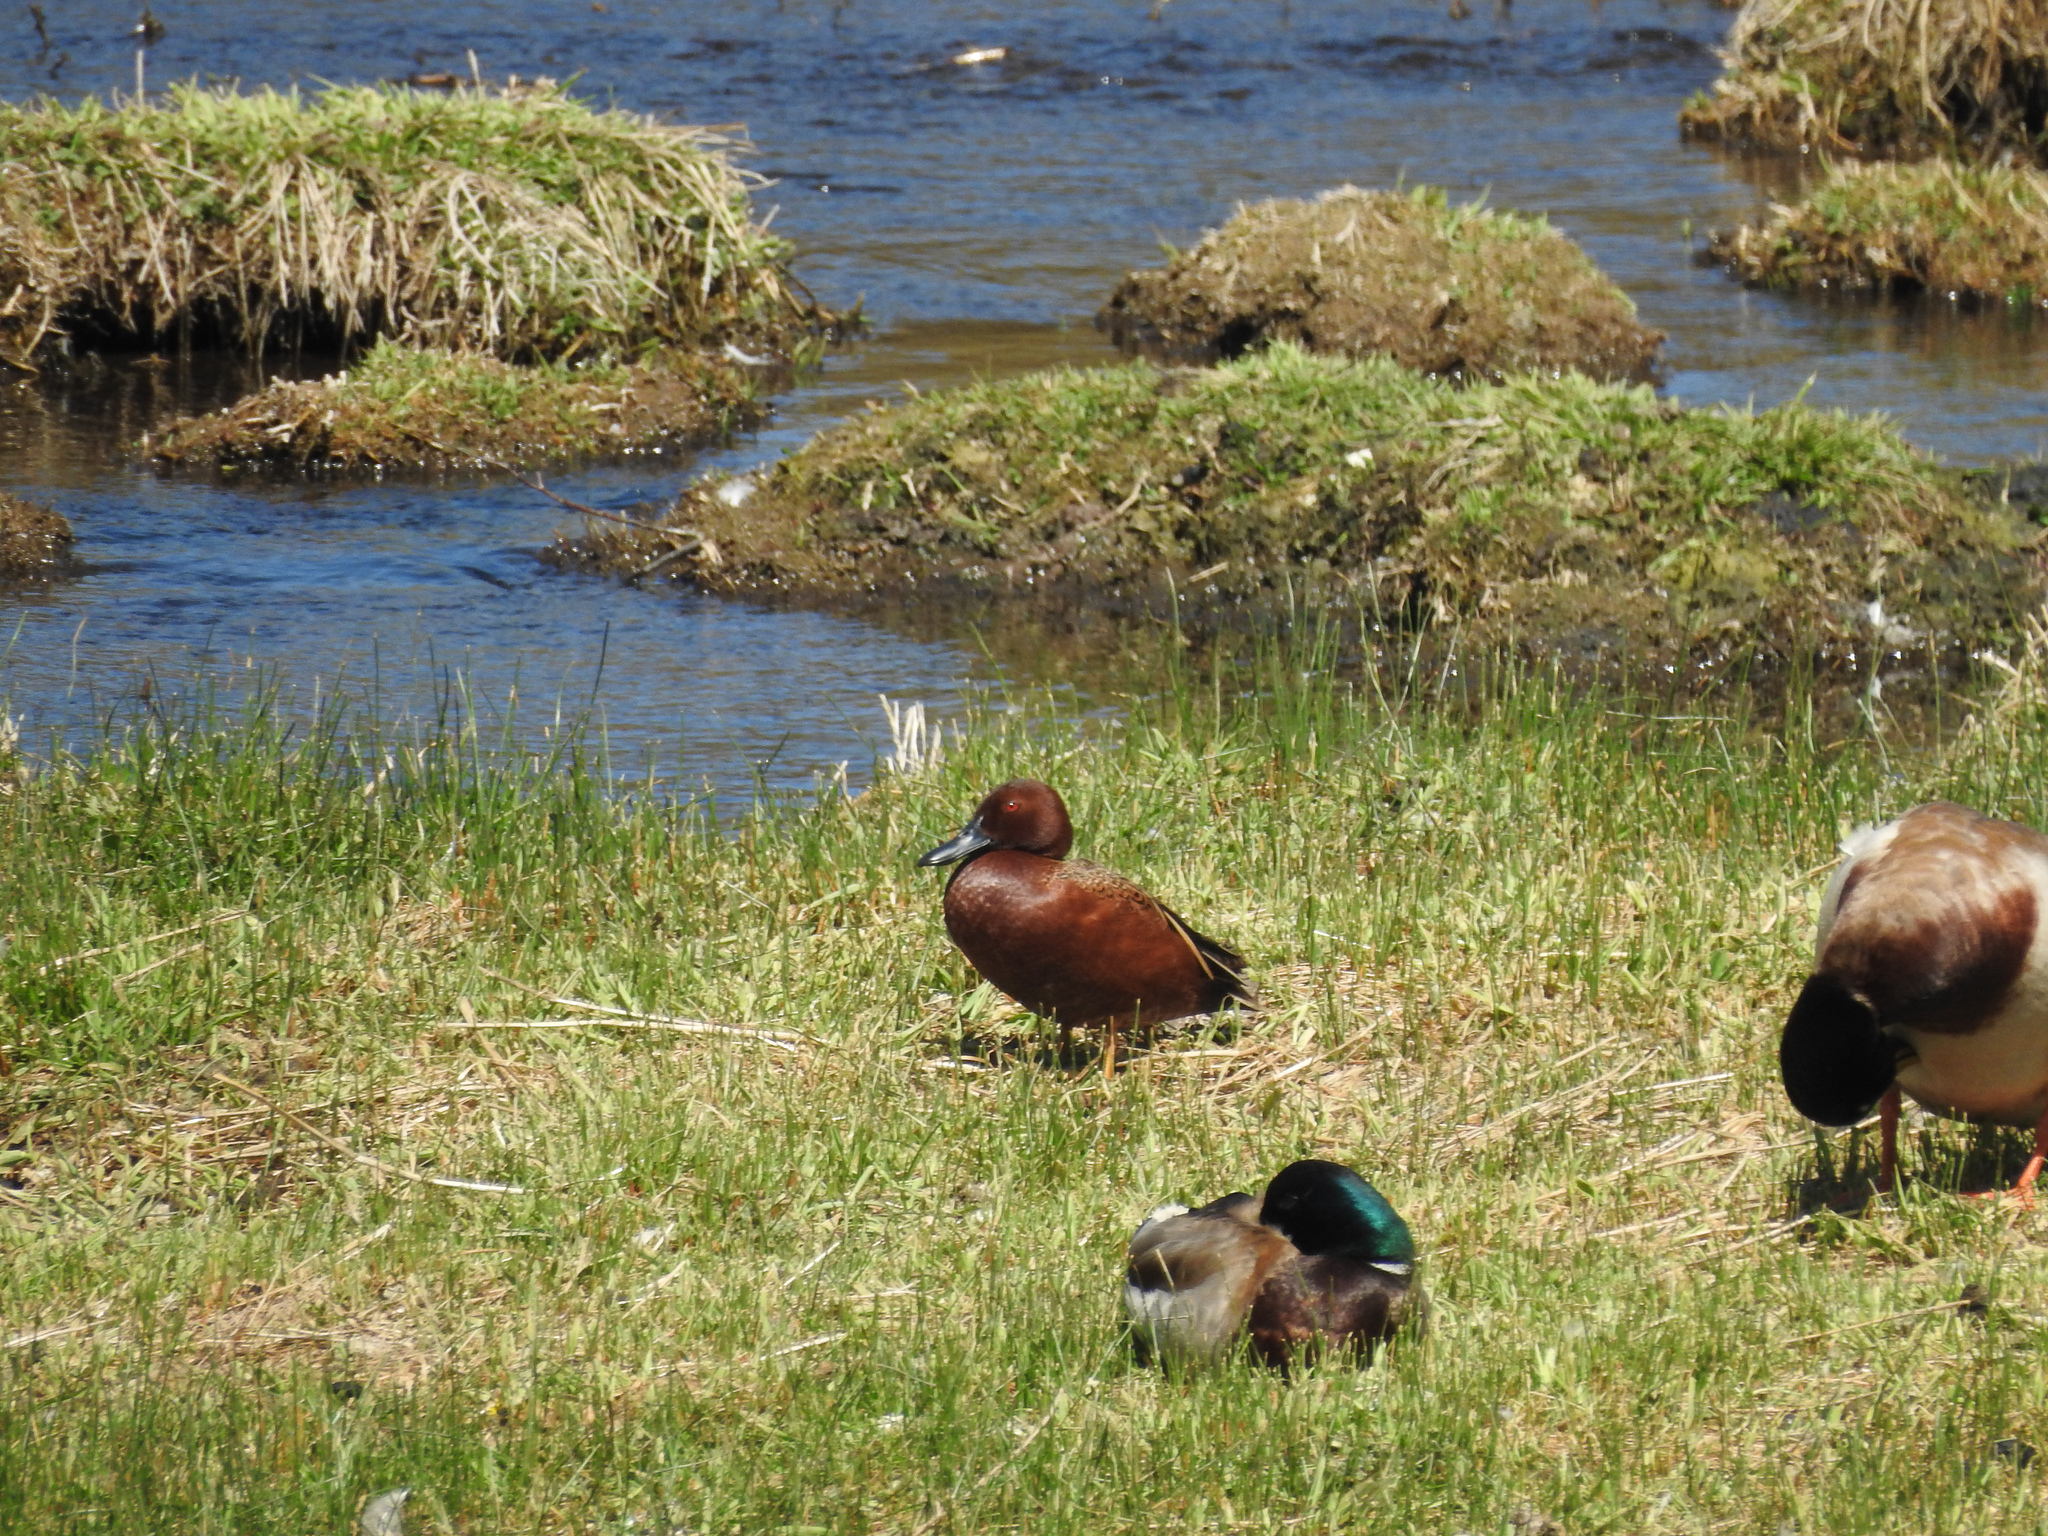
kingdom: Animalia
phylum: Chordata
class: Aves
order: Anseriformes
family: Anatidae
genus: Spatula
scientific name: Spatula cyanoptera
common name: Cinnamon teal
